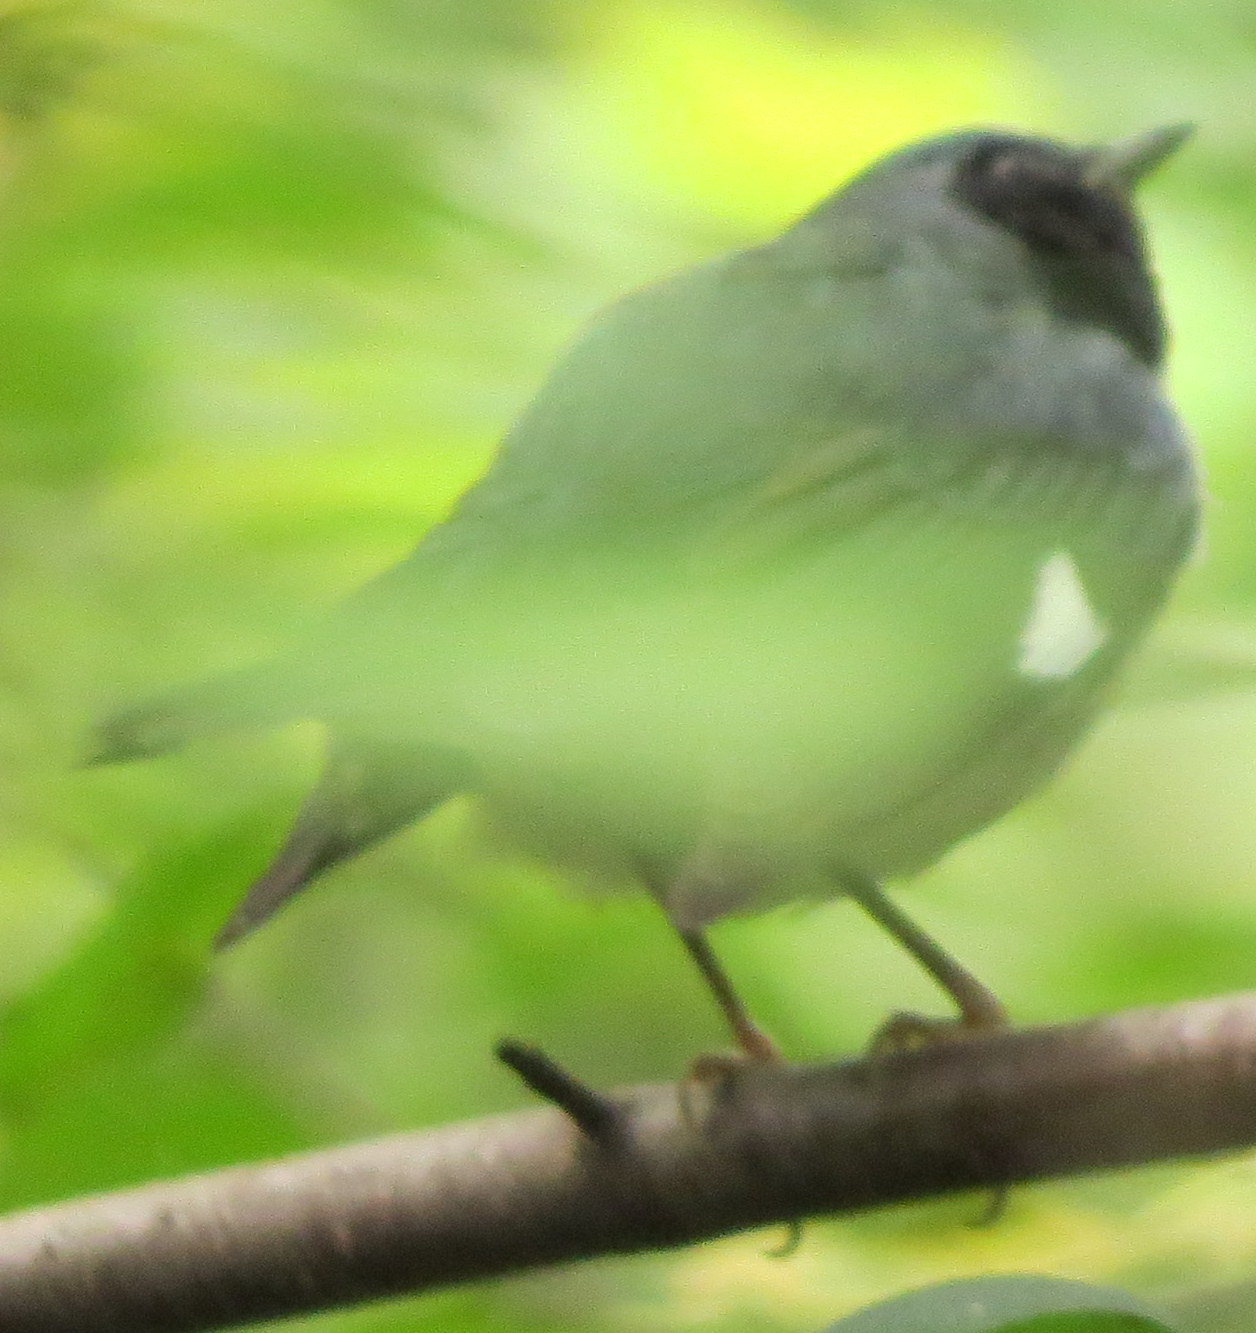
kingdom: Animalia
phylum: Chordata
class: Aves
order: Passeriformes
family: Parulidae
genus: Setophaga
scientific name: Setophaga caerulescens
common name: Black-throated blue warbler
